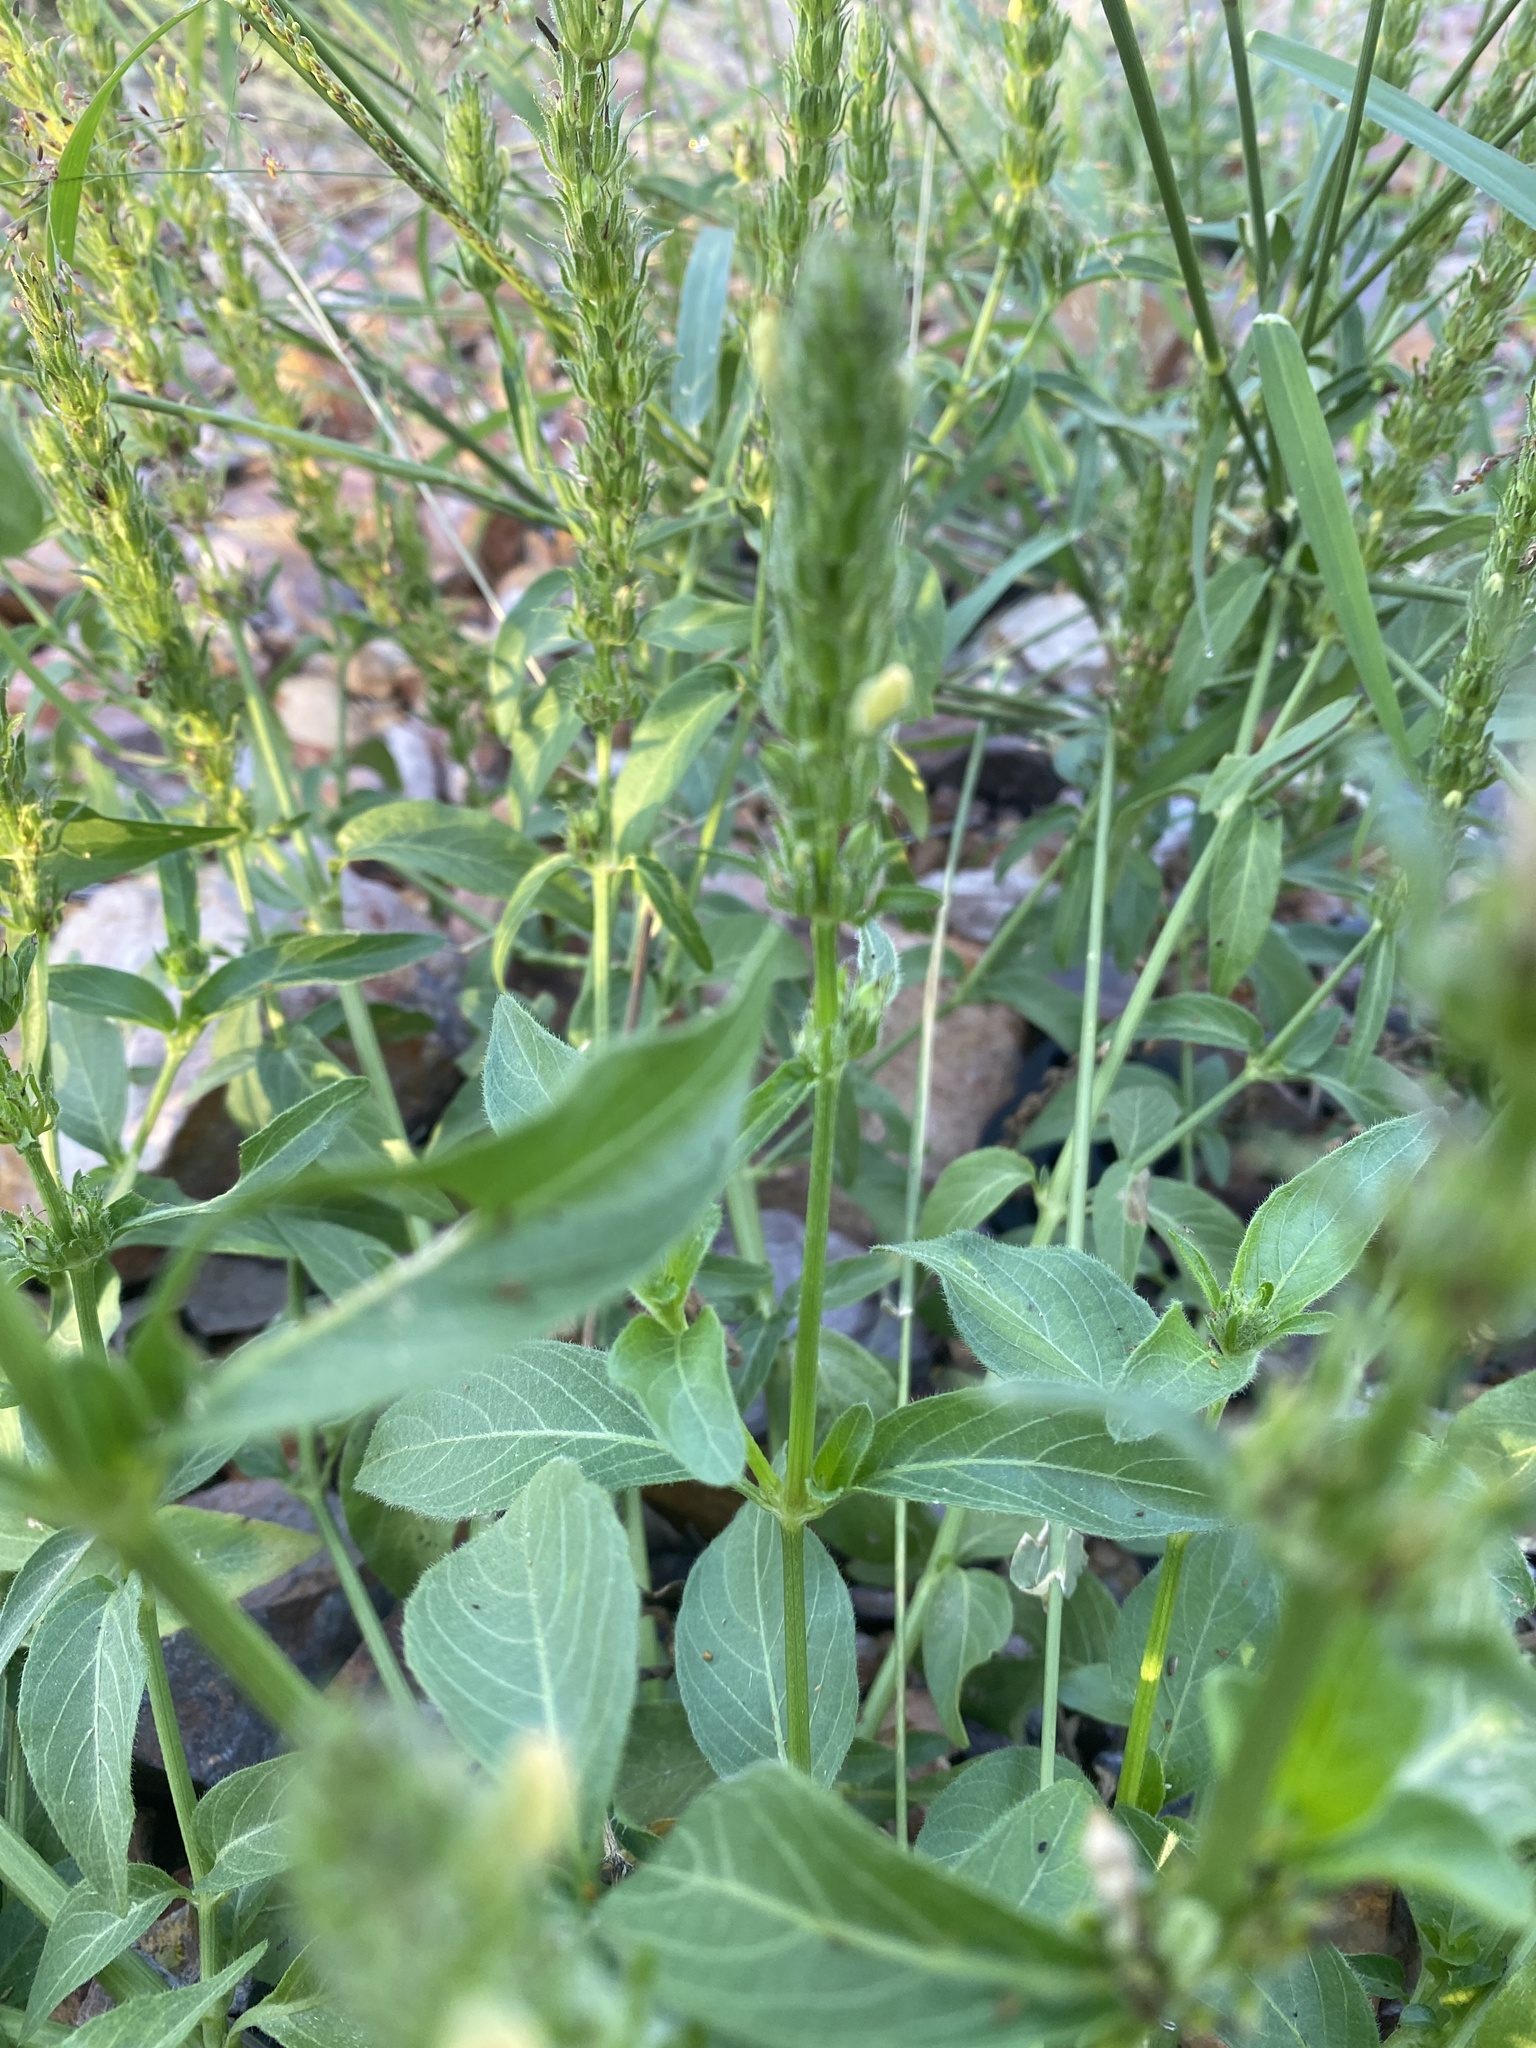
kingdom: Plantae
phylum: Tracheophyta
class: Magnoliopsida
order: Lamiales
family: Acanthaceae
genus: Justicia
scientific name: Justicia flava
